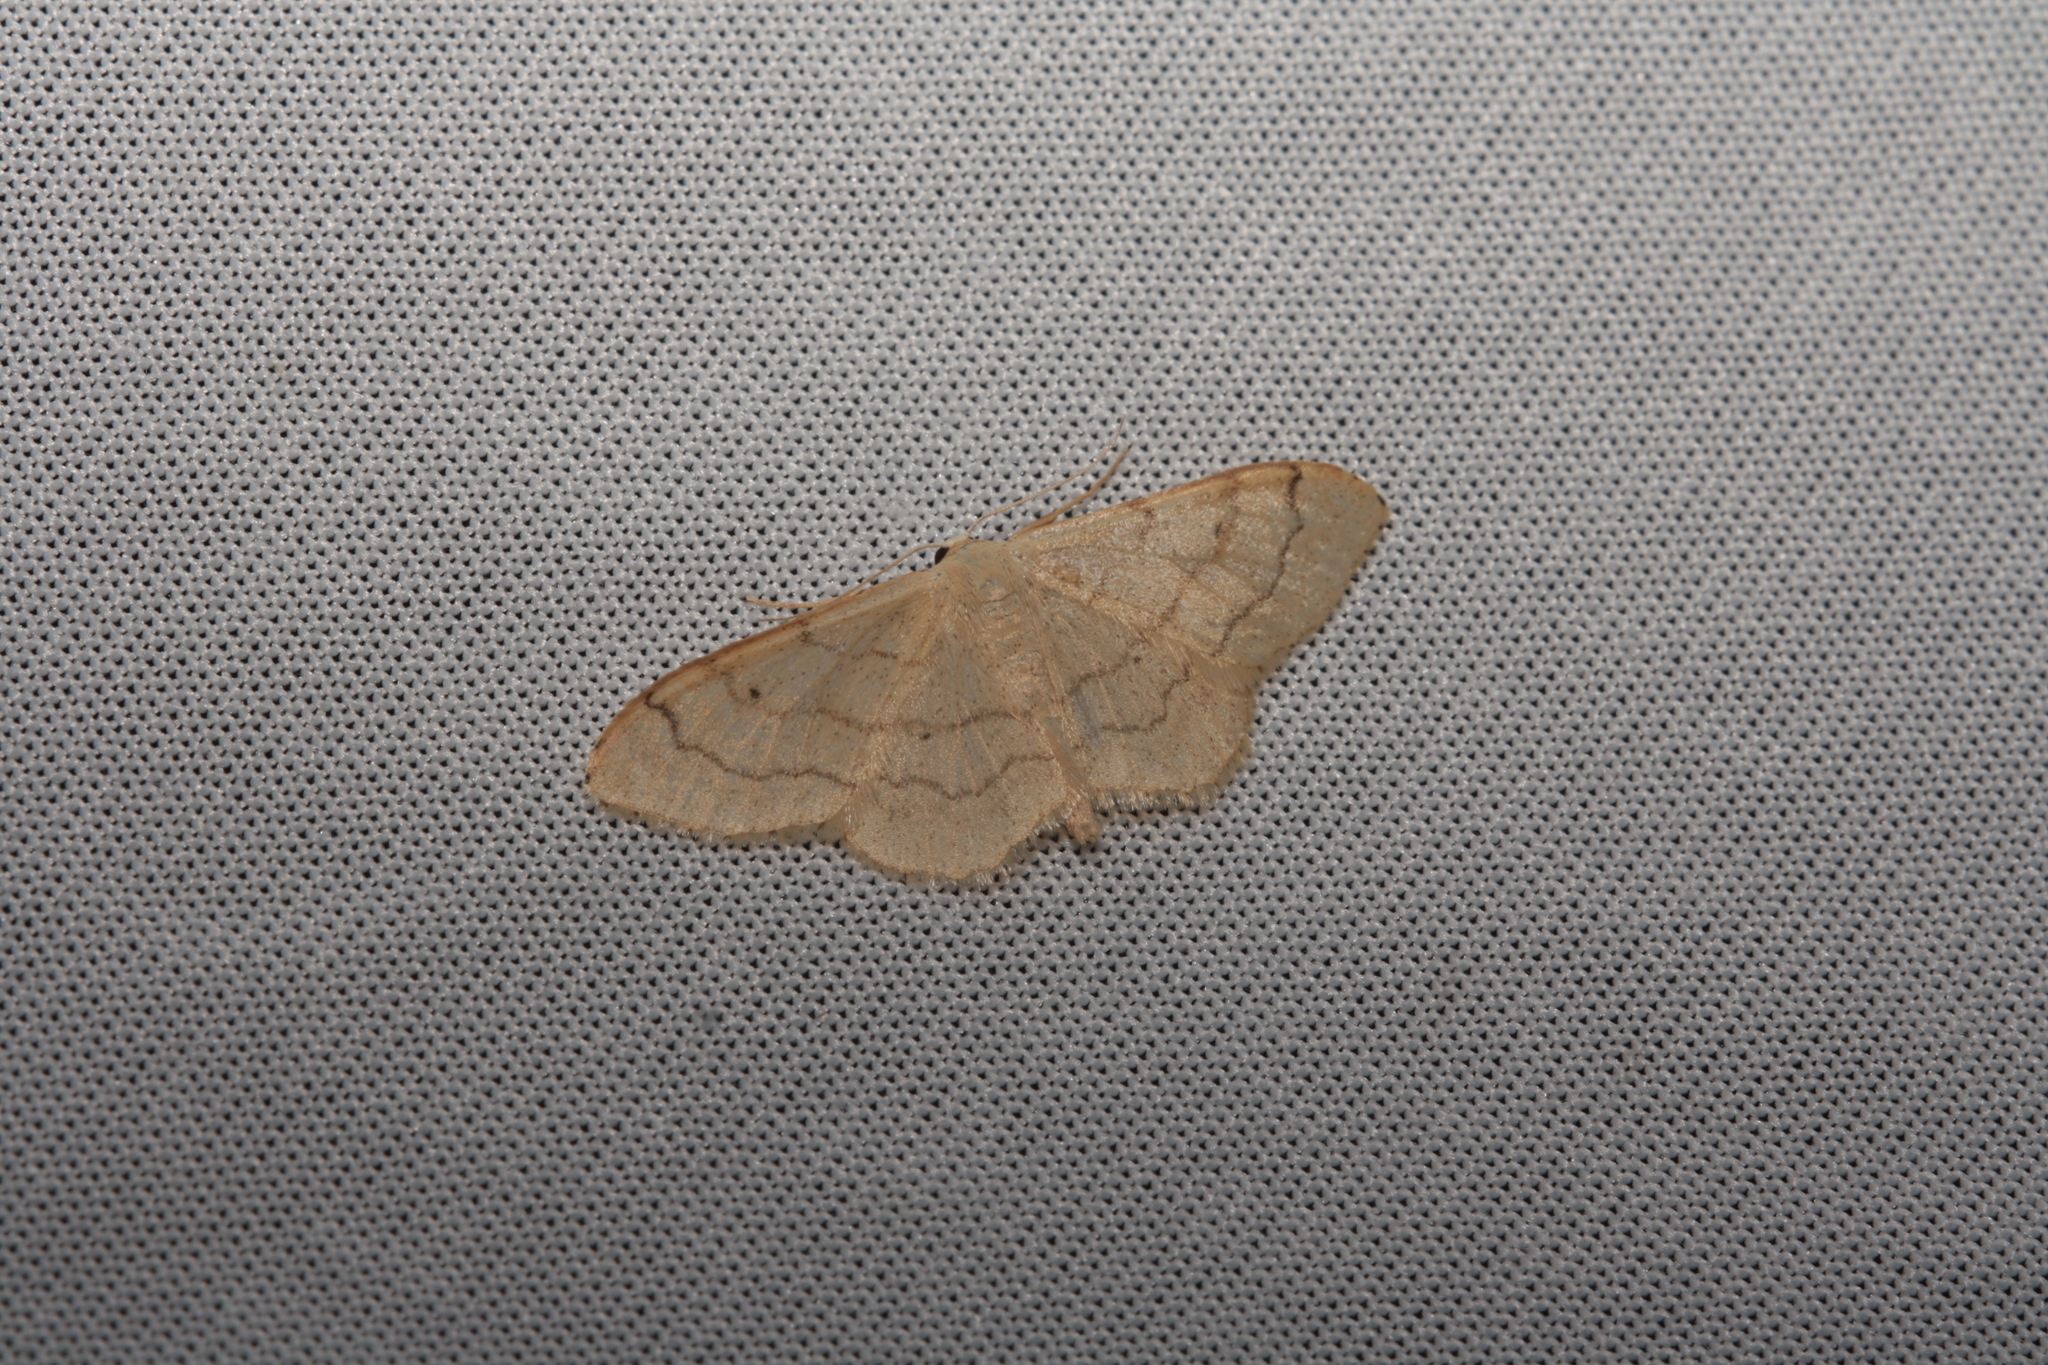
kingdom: Animalia
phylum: Arthropoda
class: Insecta
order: Lepidoptera
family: Geometridae
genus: Idaea
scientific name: Idaea aversata
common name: Riband wave
